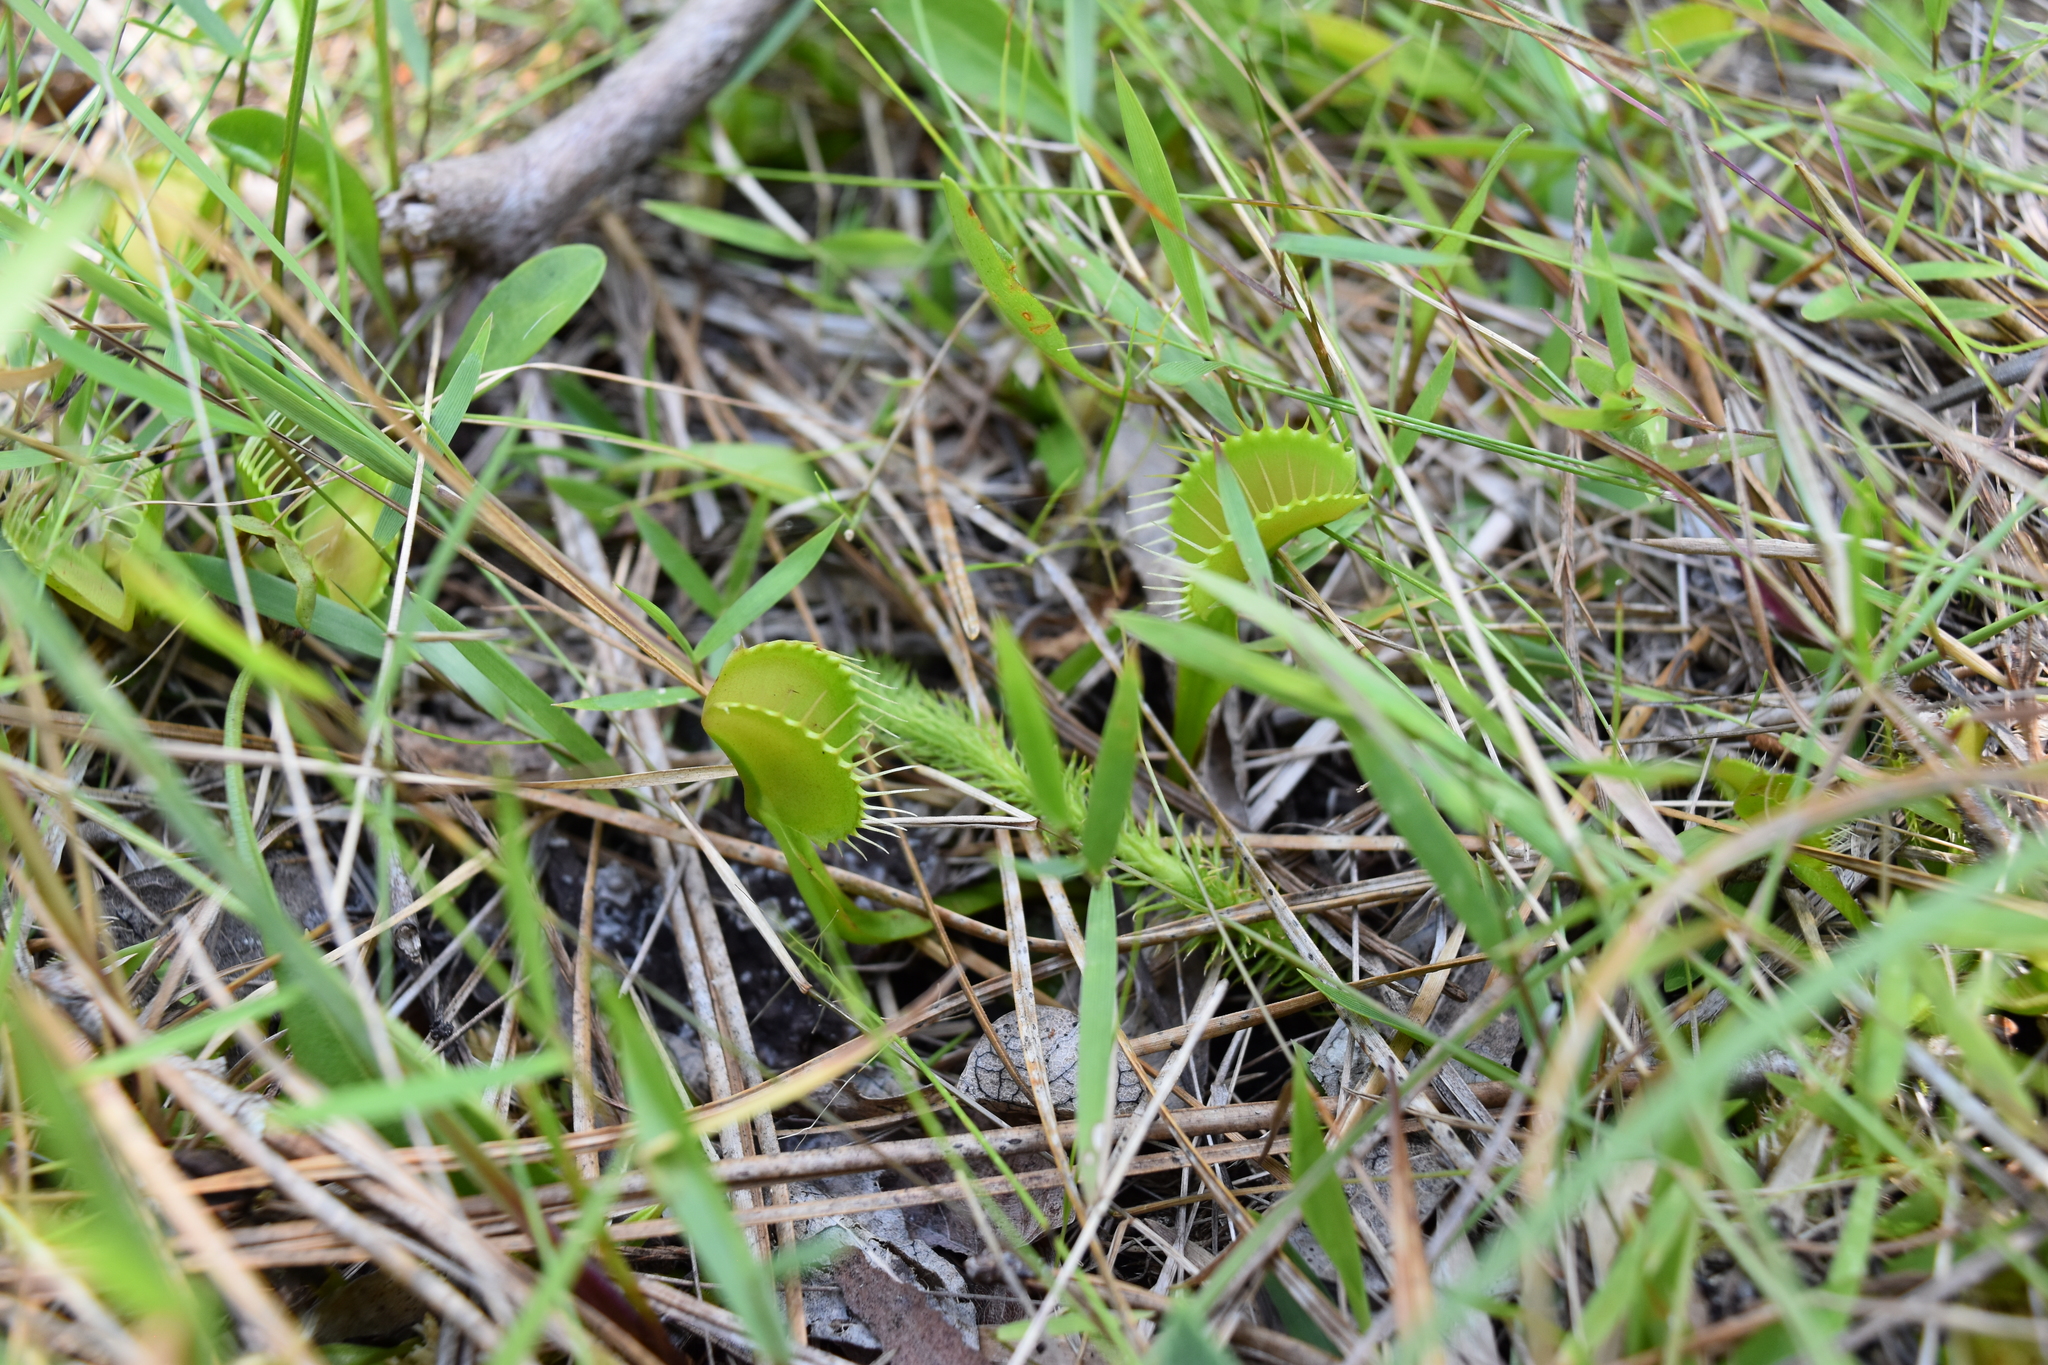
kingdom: Plantae
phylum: Tracheophyta
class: Magnoliopsida
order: Caryophyllales
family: Droseraceae
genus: Dionaea
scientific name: Dionaea muscipula
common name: Venus flytrap
